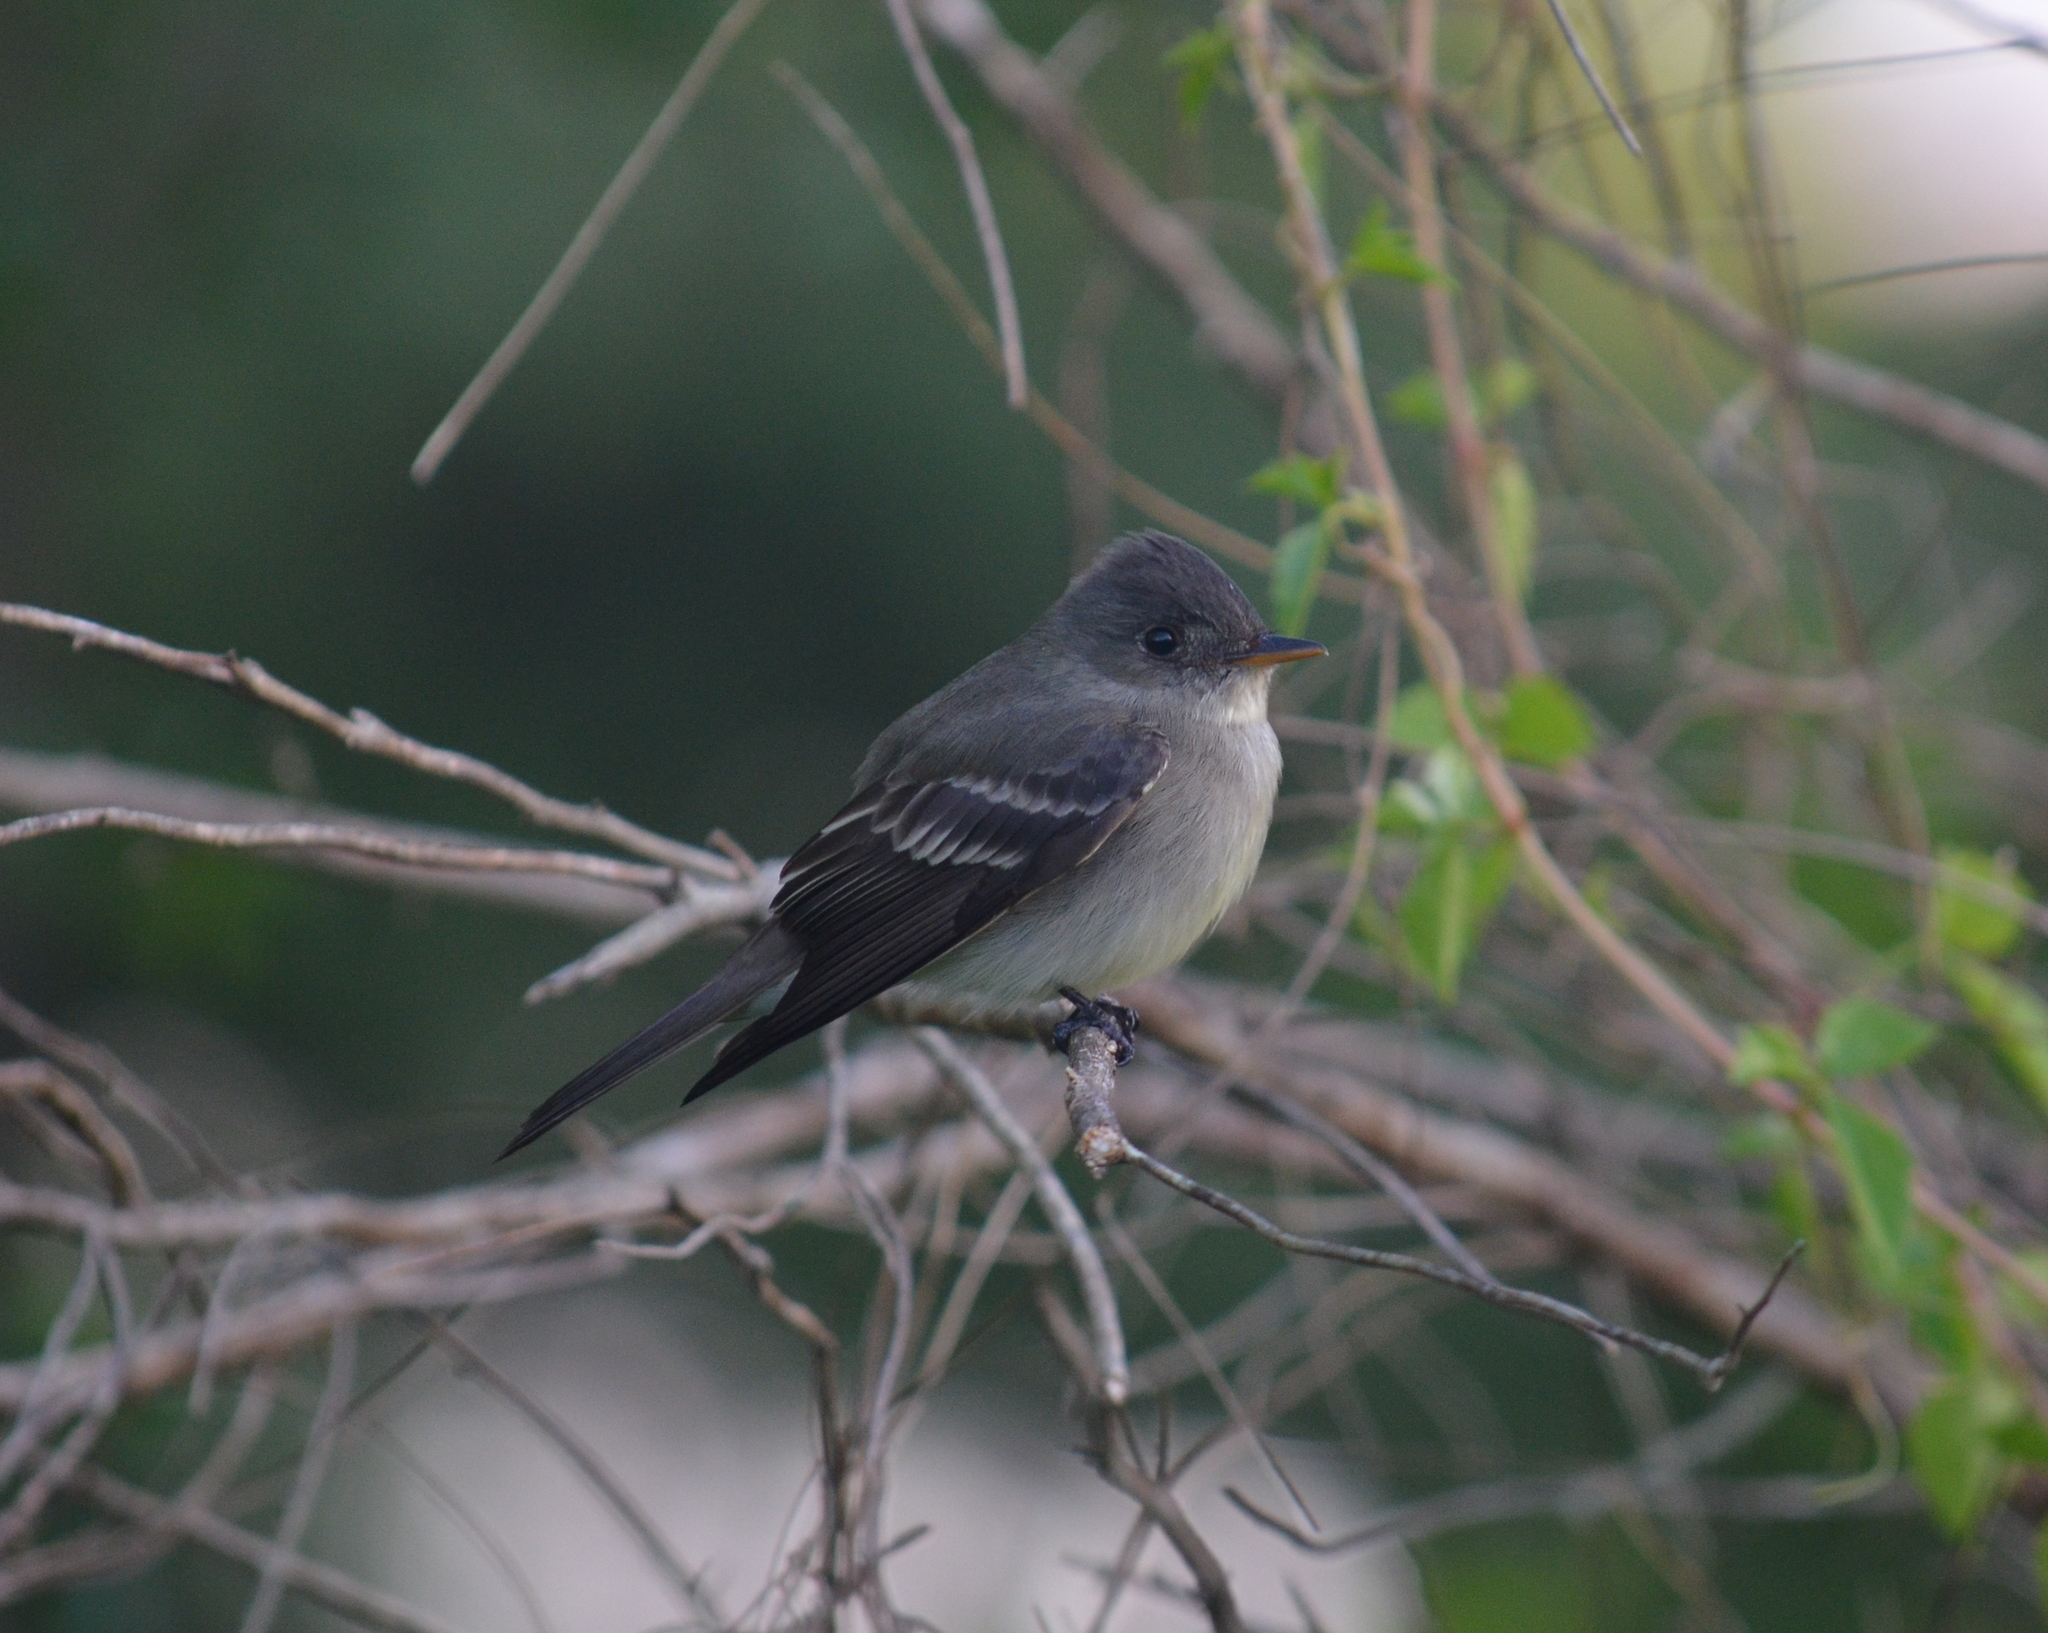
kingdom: Animalia
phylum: Chordata
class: Aves
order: Passeriformes
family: Tyrannidae
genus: Contopus
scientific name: Contopus virens
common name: Eastern wood-pewee
